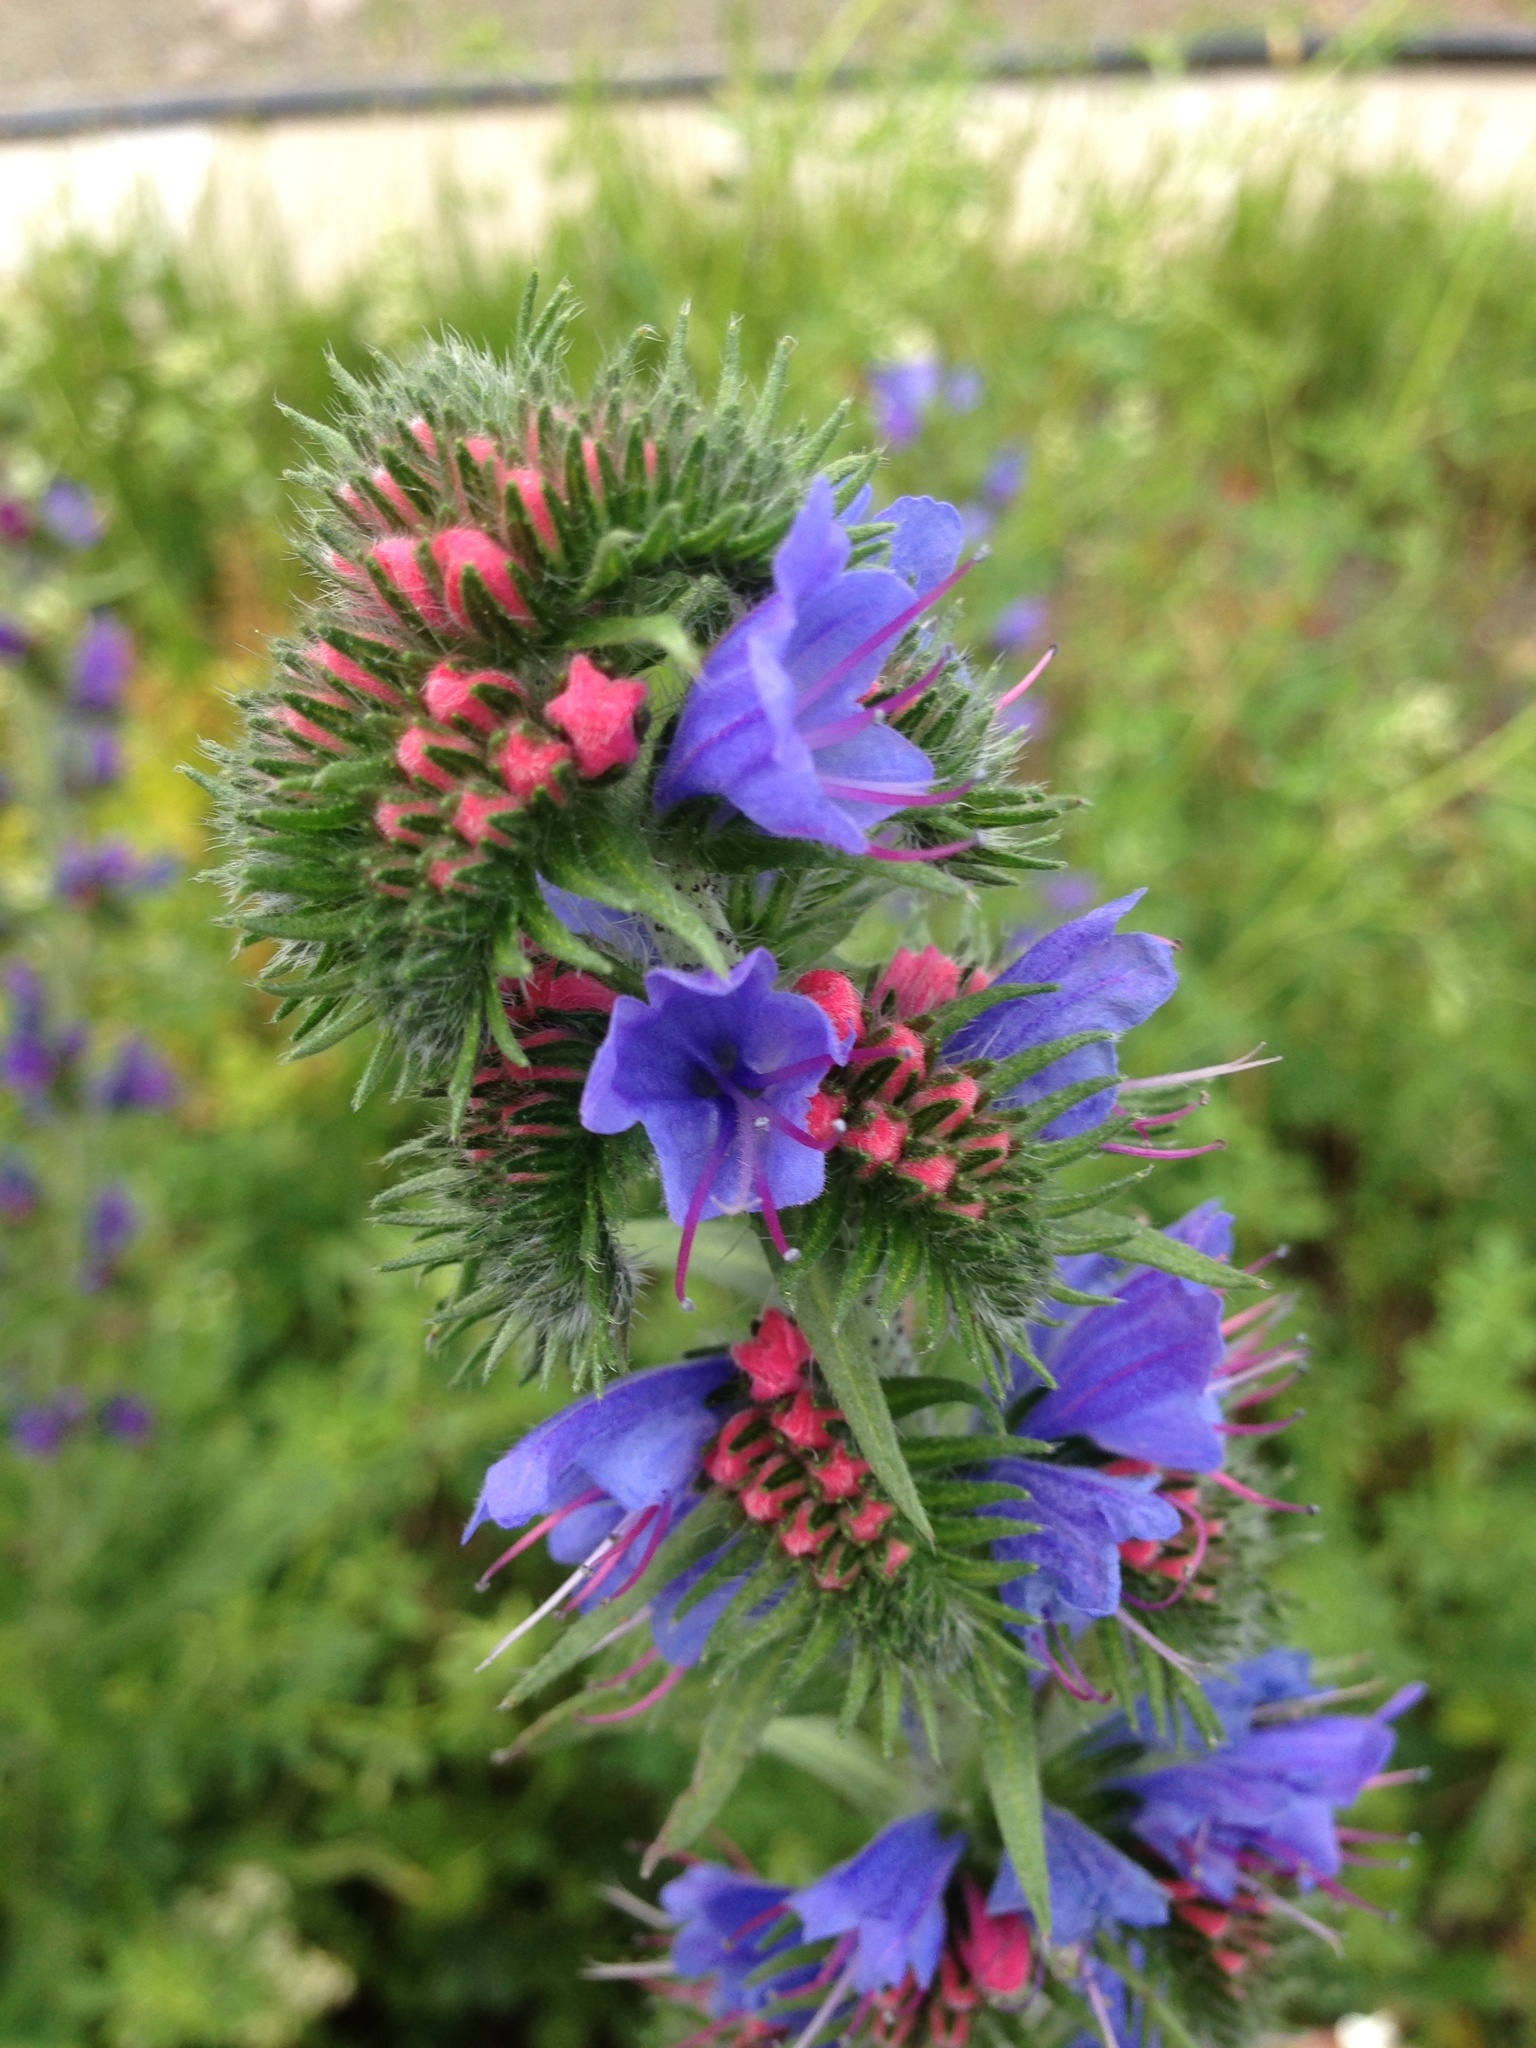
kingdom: Plantae
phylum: Tracheophyta
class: Magnoliopsida
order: Boraginales
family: Boraginaceae
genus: Echium
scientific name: Echium vulgare
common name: Common viper's bugloss
